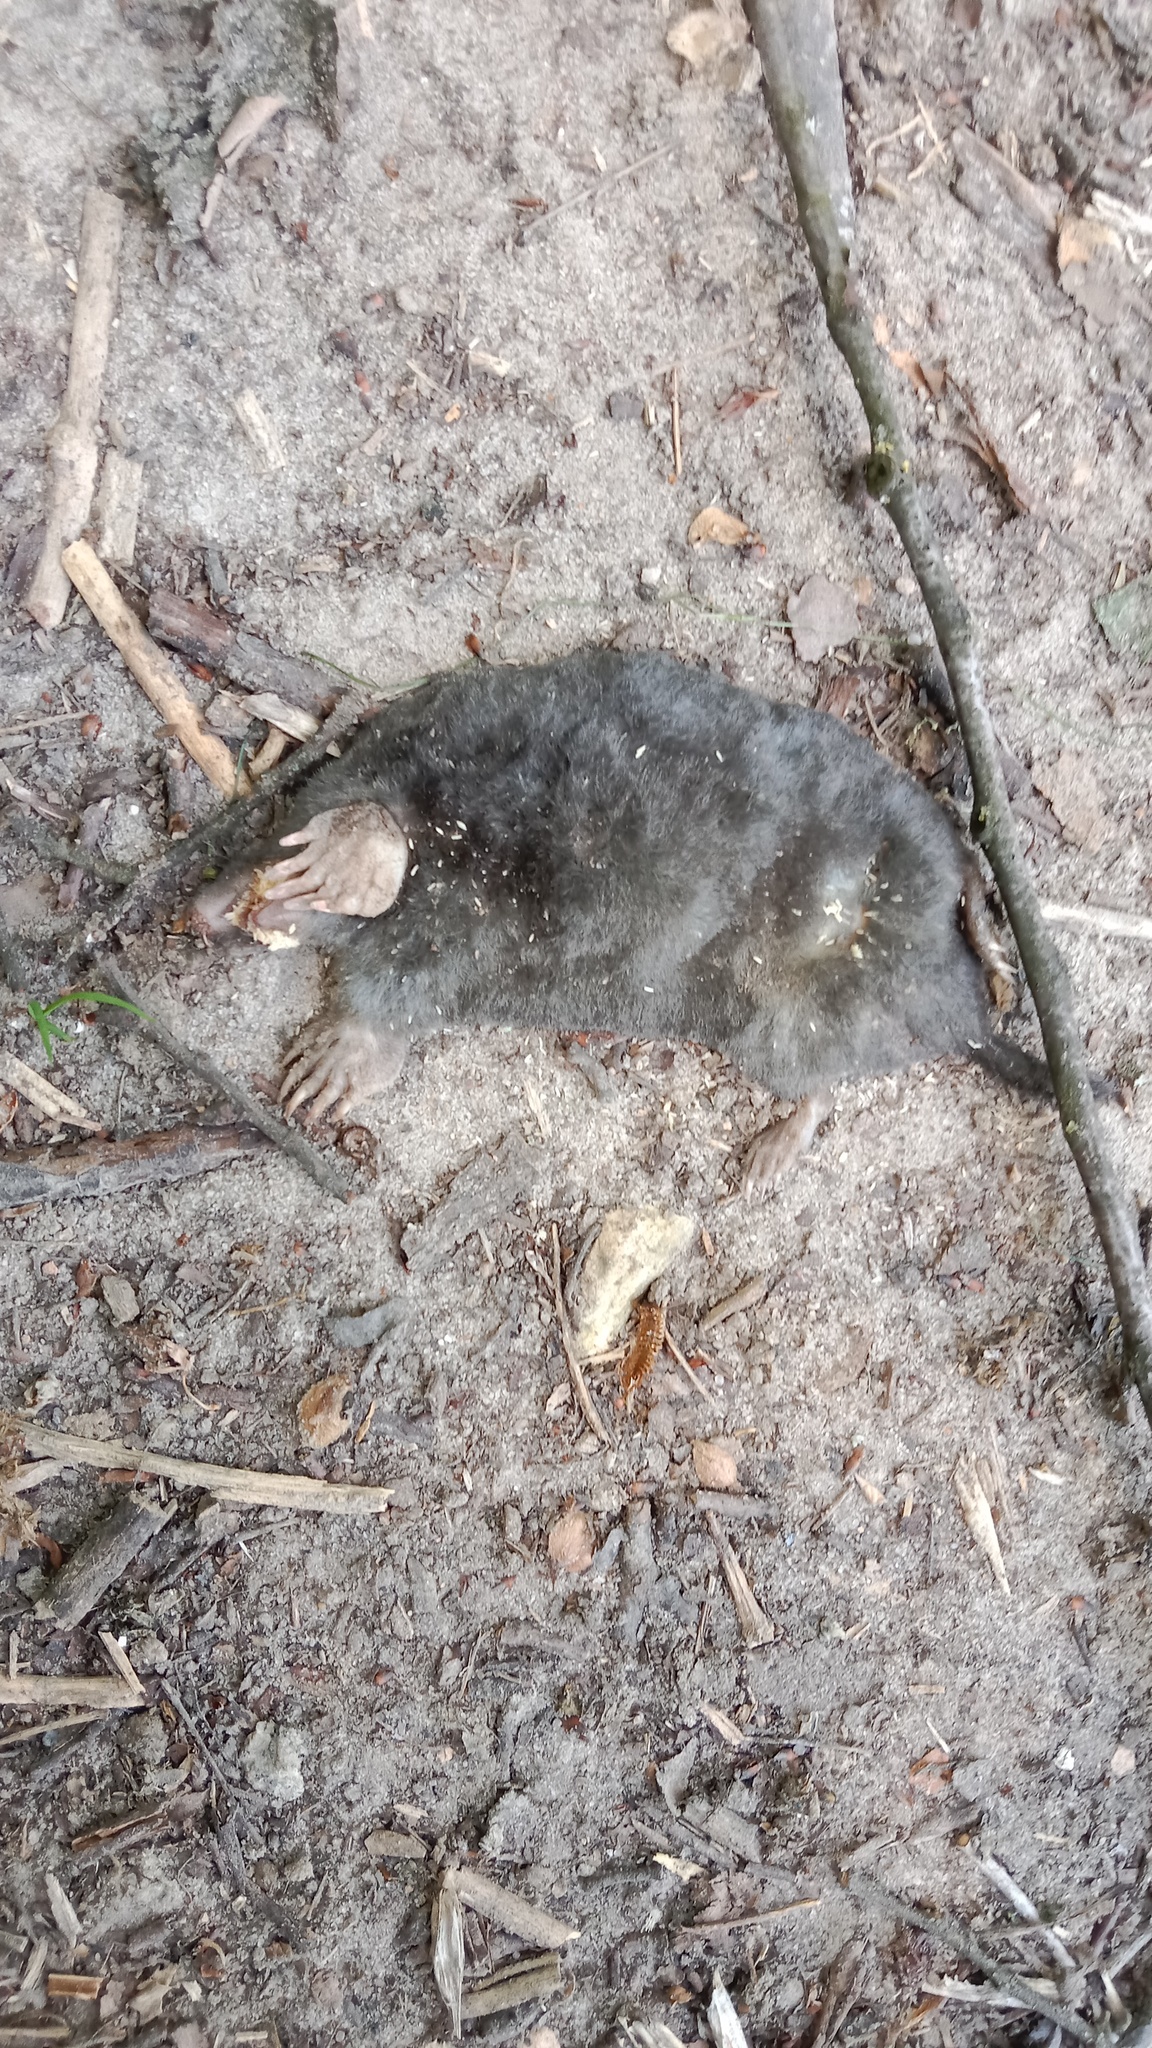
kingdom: Animalia
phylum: Chordata
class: Mammalia
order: Soricomorpha
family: Talpidae
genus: Talpa
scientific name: Talpa europaea
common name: European mole
